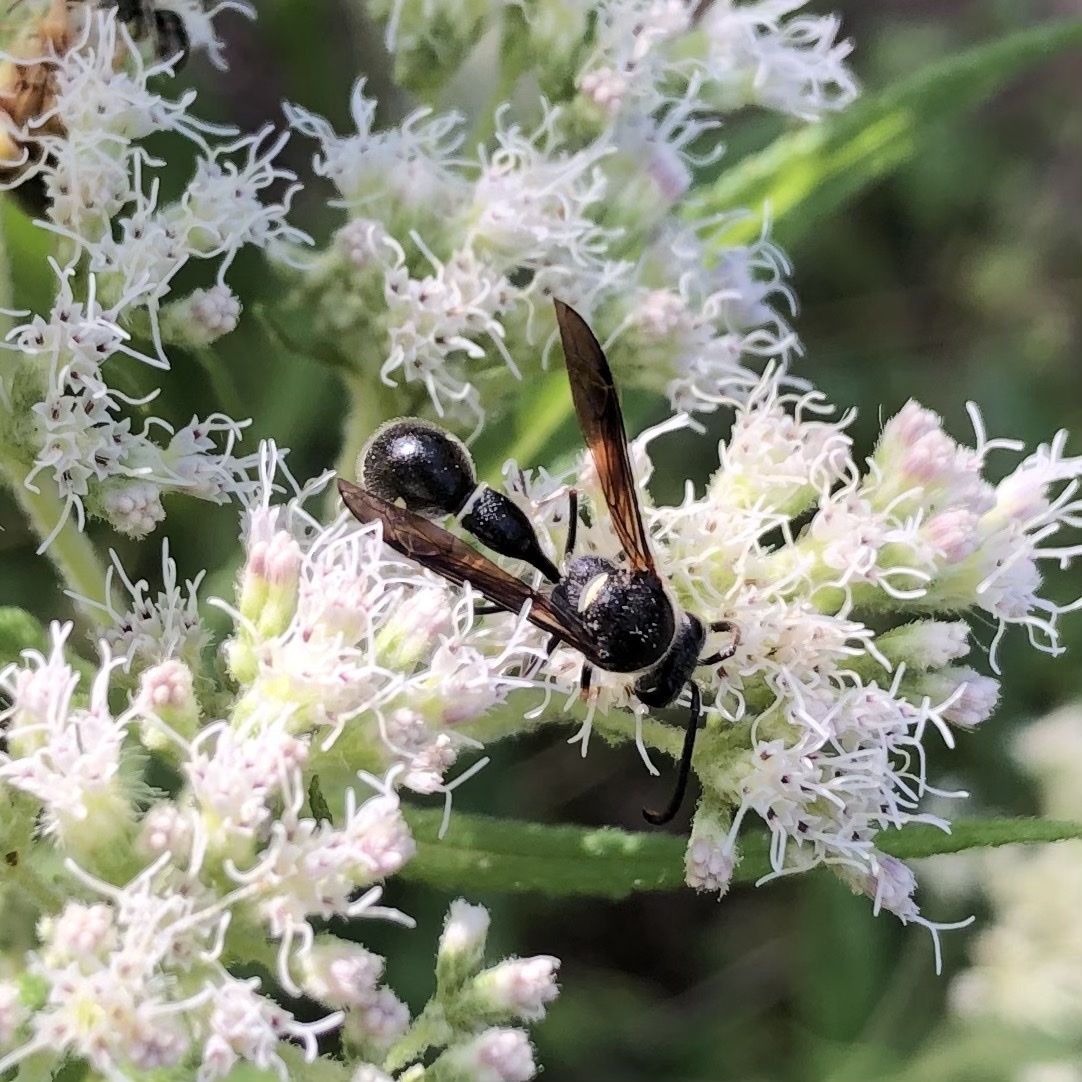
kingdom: Animalia
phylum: Arthropoda
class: Insecta
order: Hymenoptera
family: Vespidae
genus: Eumenes
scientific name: Eumenes fraternus
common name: Fraternal potter wasp
